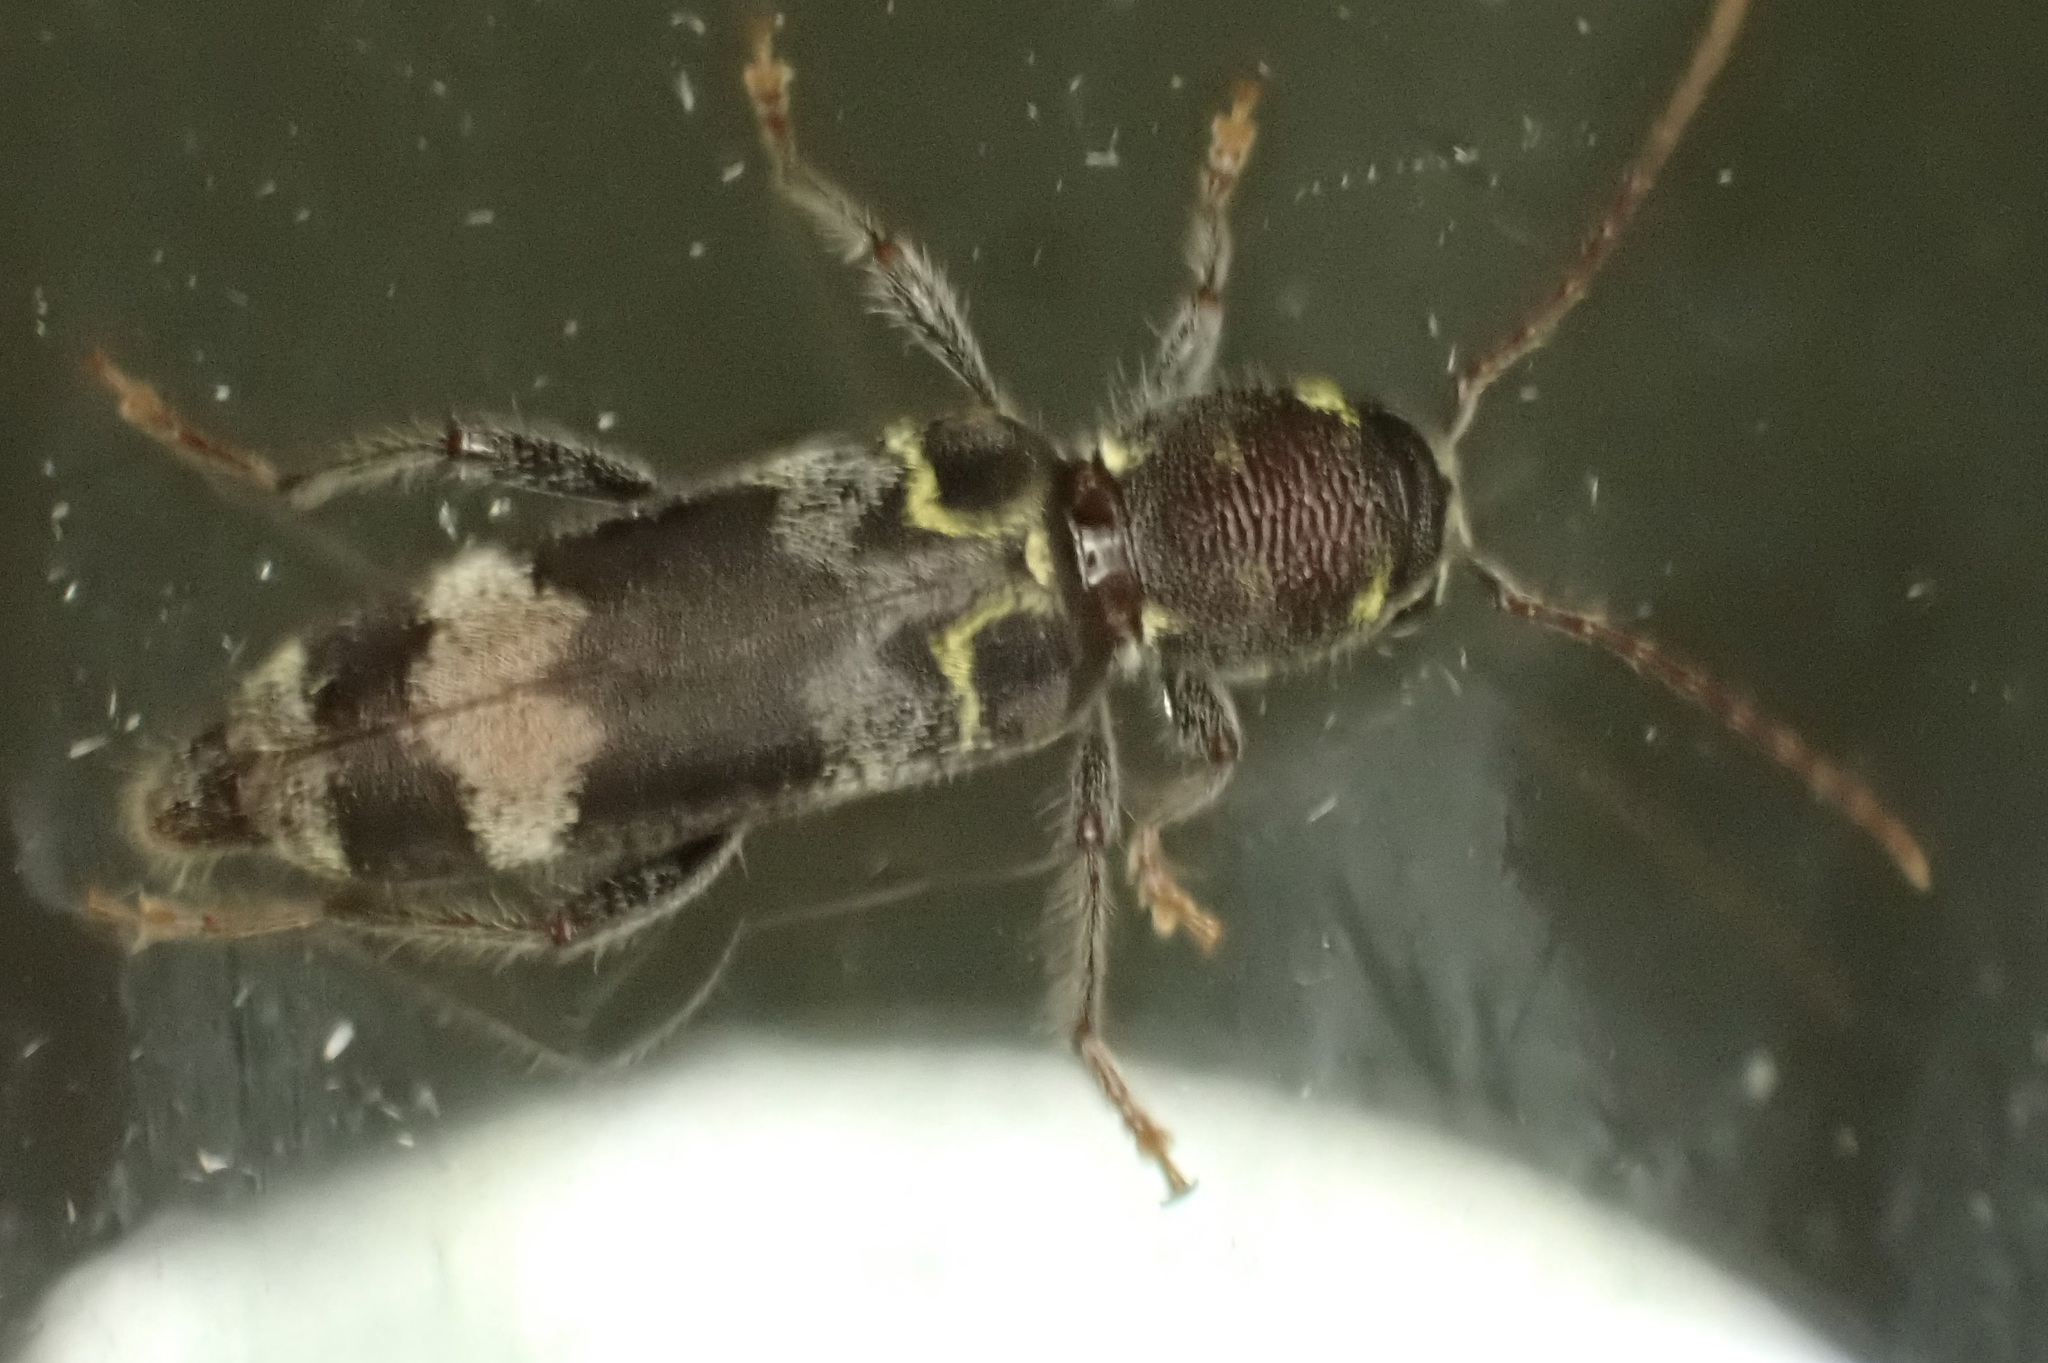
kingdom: Animalia
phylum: Arthropoda
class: Insecta
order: Coleoptera
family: Cerambycidae
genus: Xylotrechus
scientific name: Xylotrechus colonus
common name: Long-horned beetle
